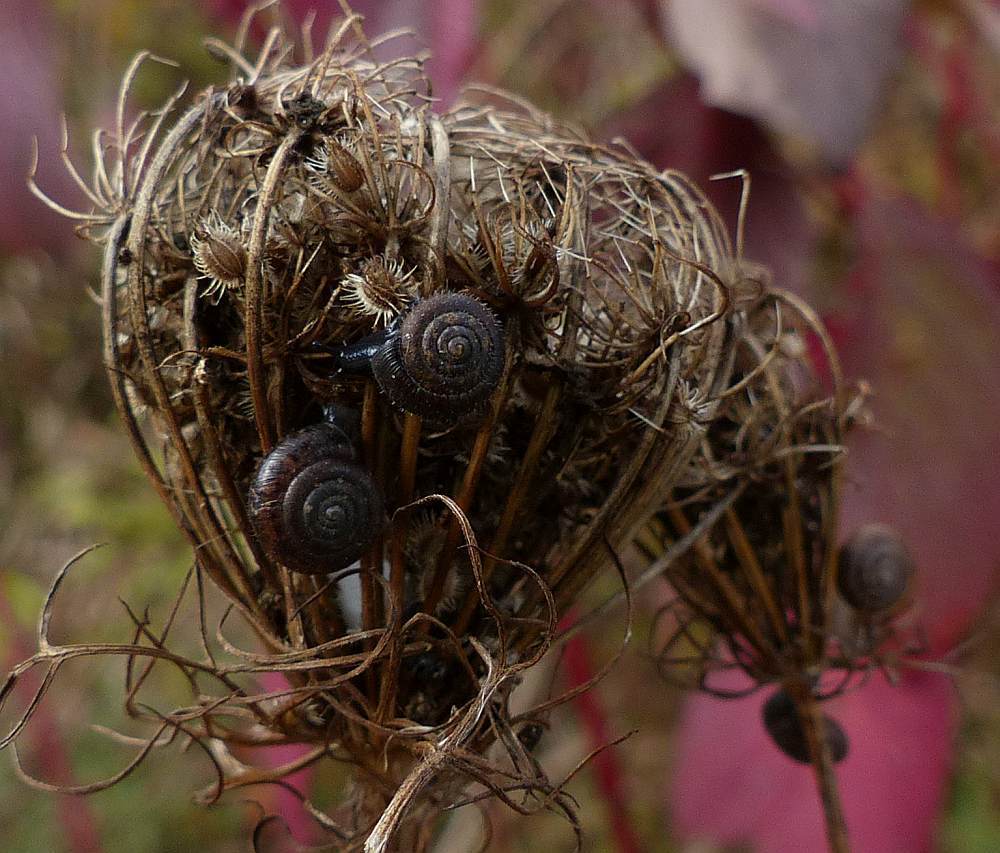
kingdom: Animalia
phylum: Mollusca
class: Gastropoda
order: Stylommatophora
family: Hygromiidae
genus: Trochulus
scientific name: Trochulus hispidus
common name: Hairy snail
